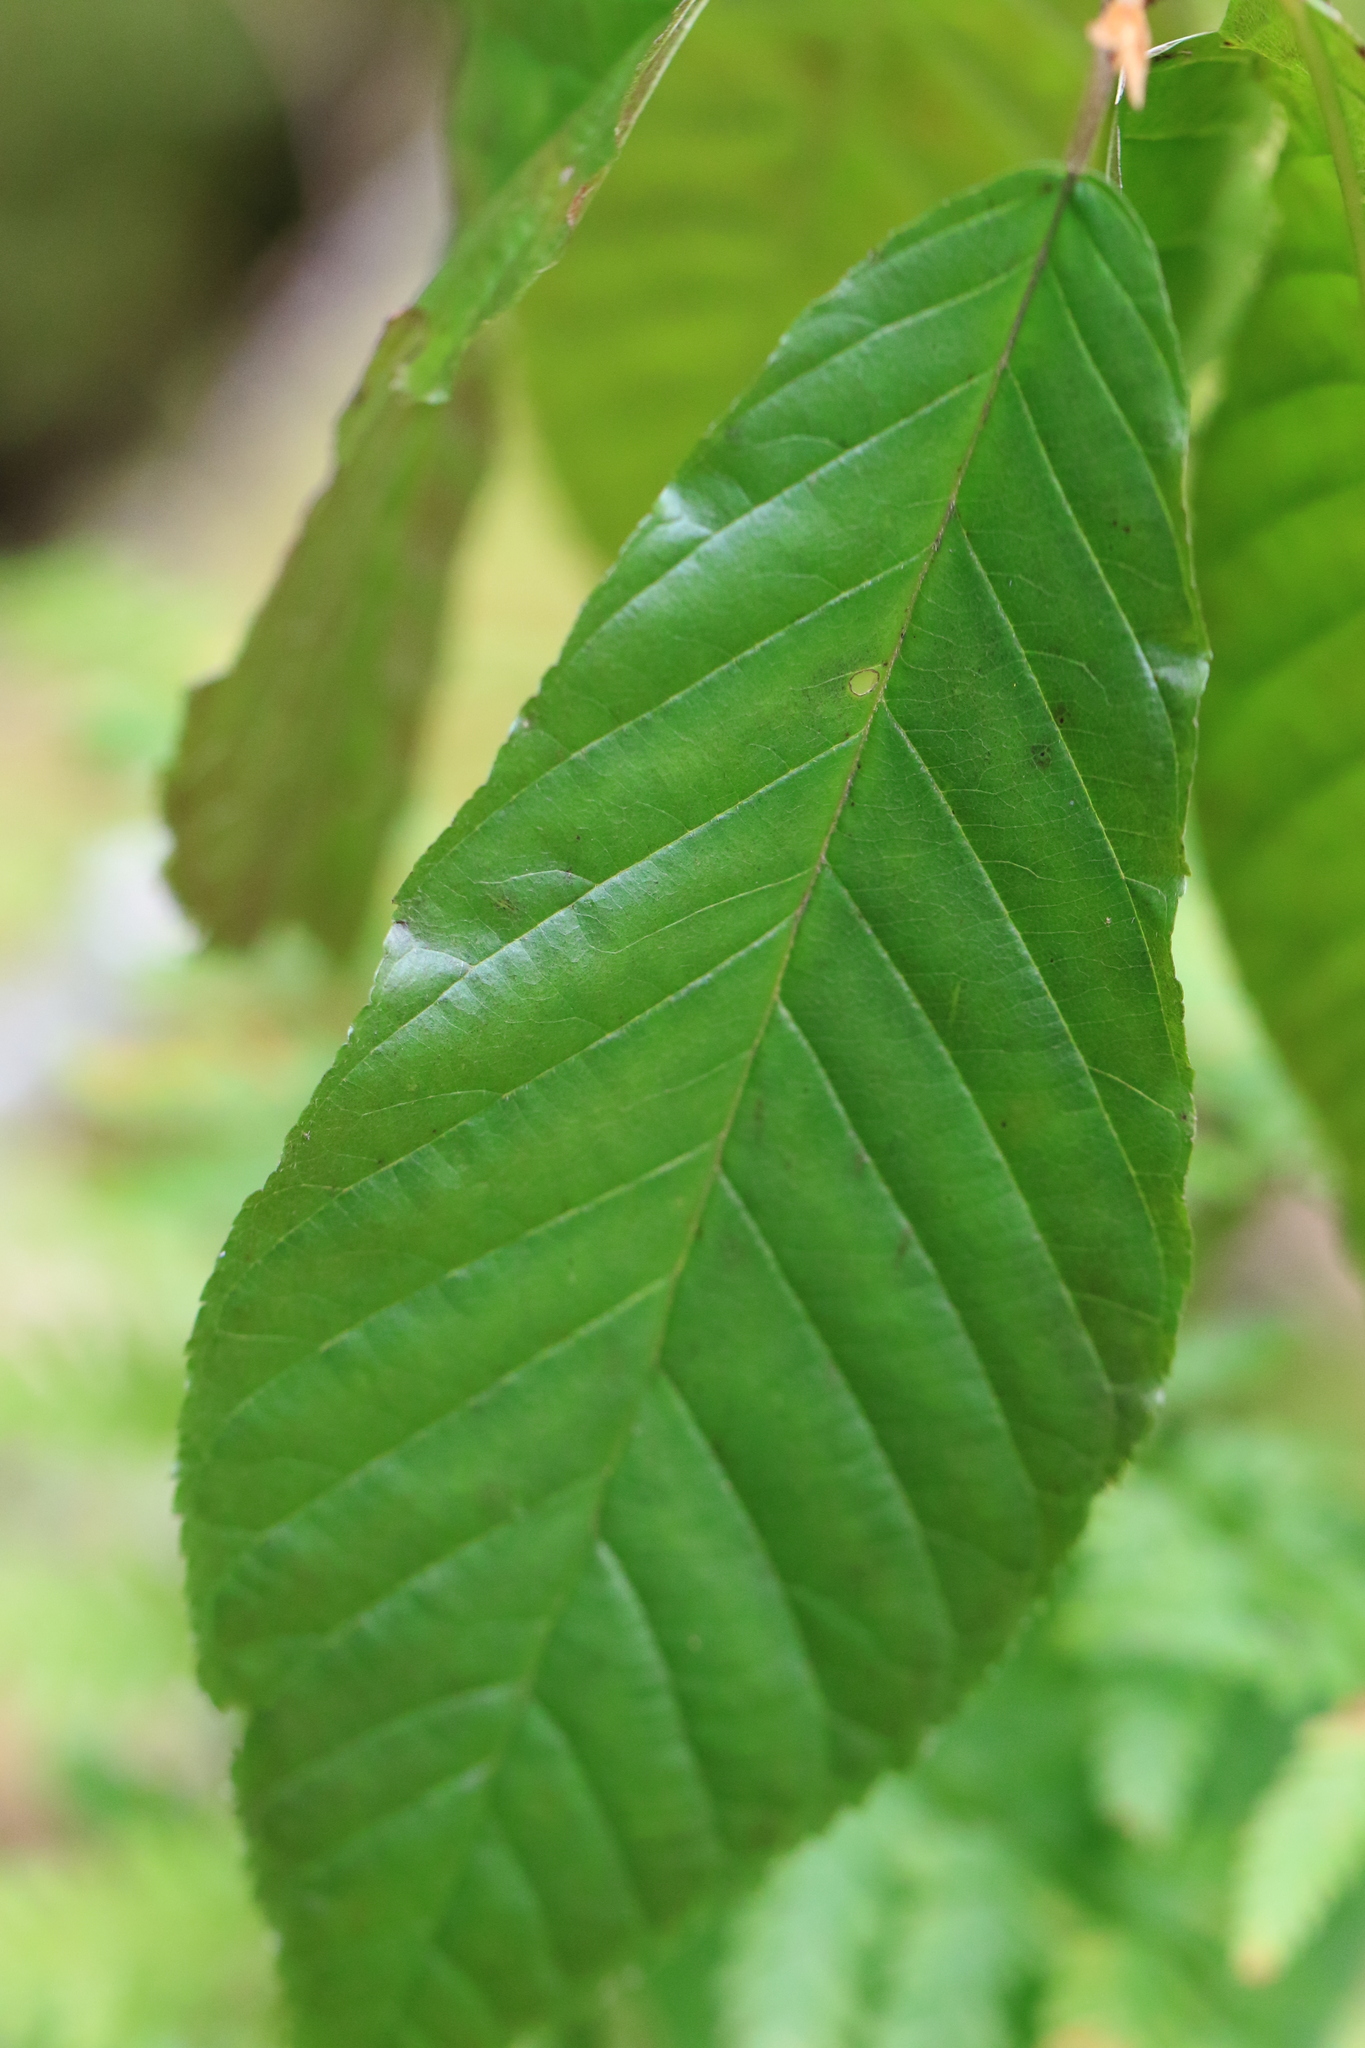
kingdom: Plantae
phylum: Tracheophyta
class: Magnoliopsida
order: Rosales
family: Rhamnaceae
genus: Frangula
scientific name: Frangula purshiana
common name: Cascara buckthorn
